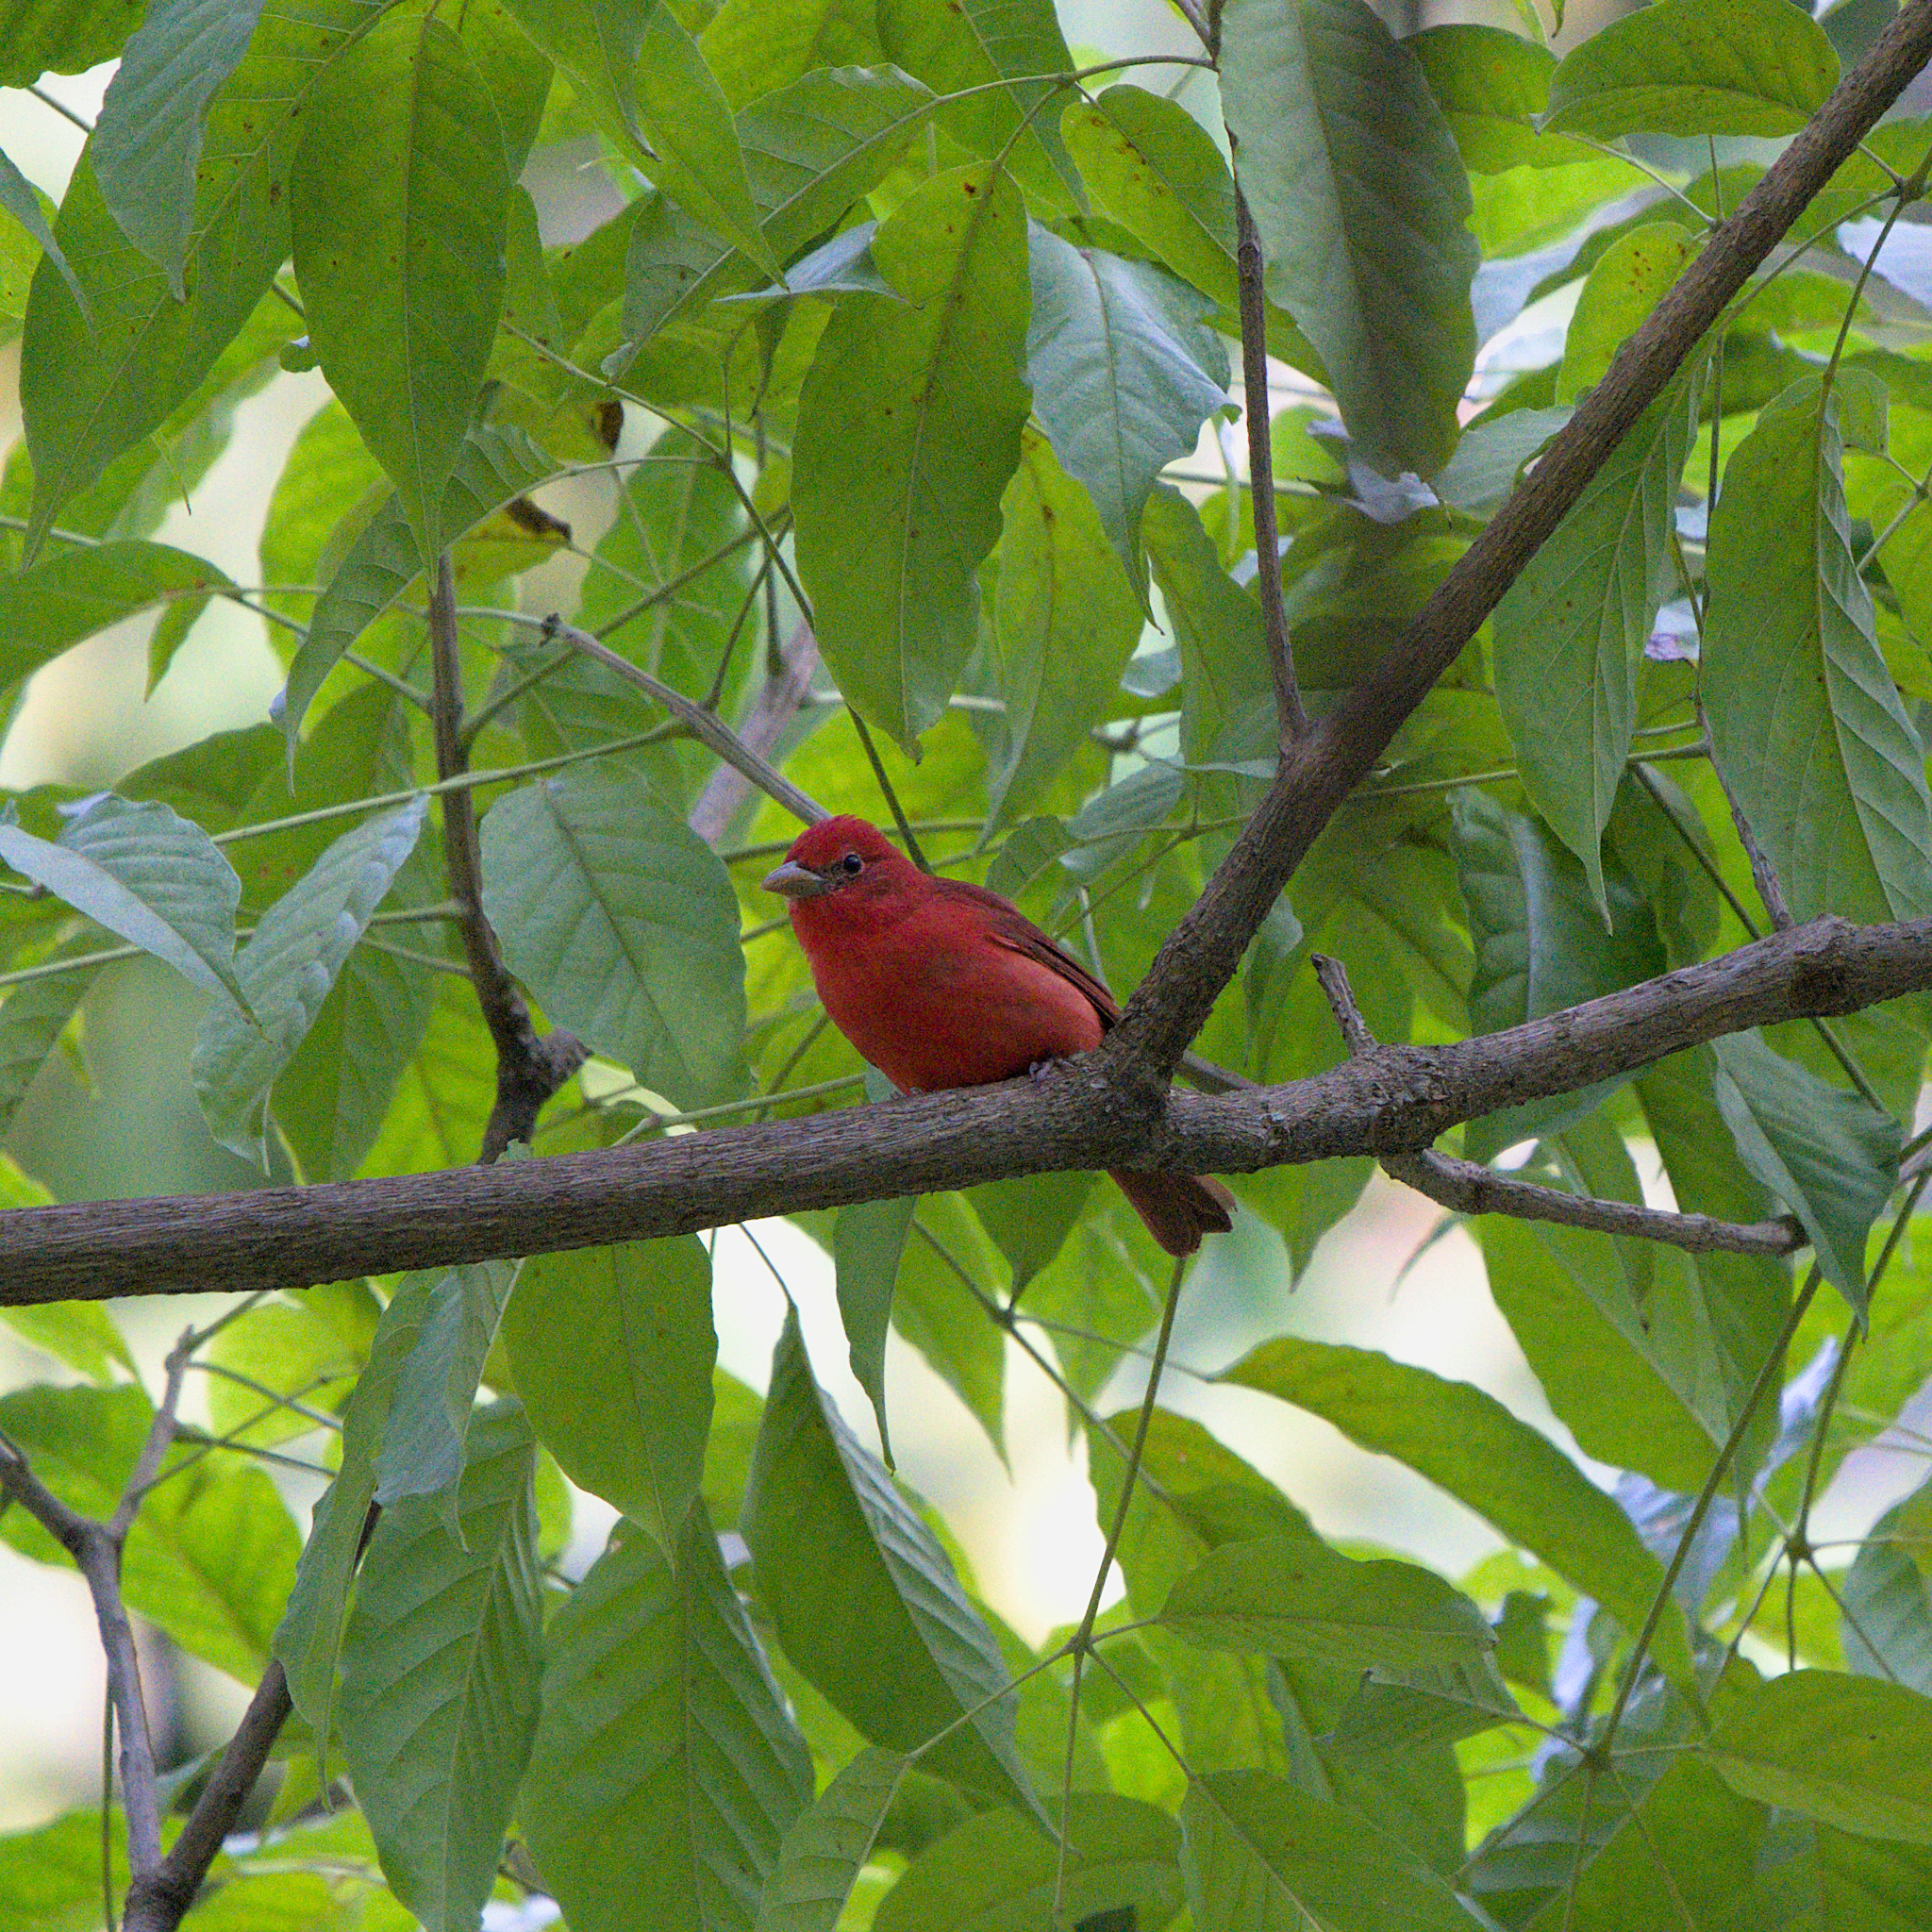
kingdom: Animalia
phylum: Chordata
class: Aves
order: Passeriformes
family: Cardinalidae
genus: Piranga
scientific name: Piranga rubra
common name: Summer tanager
